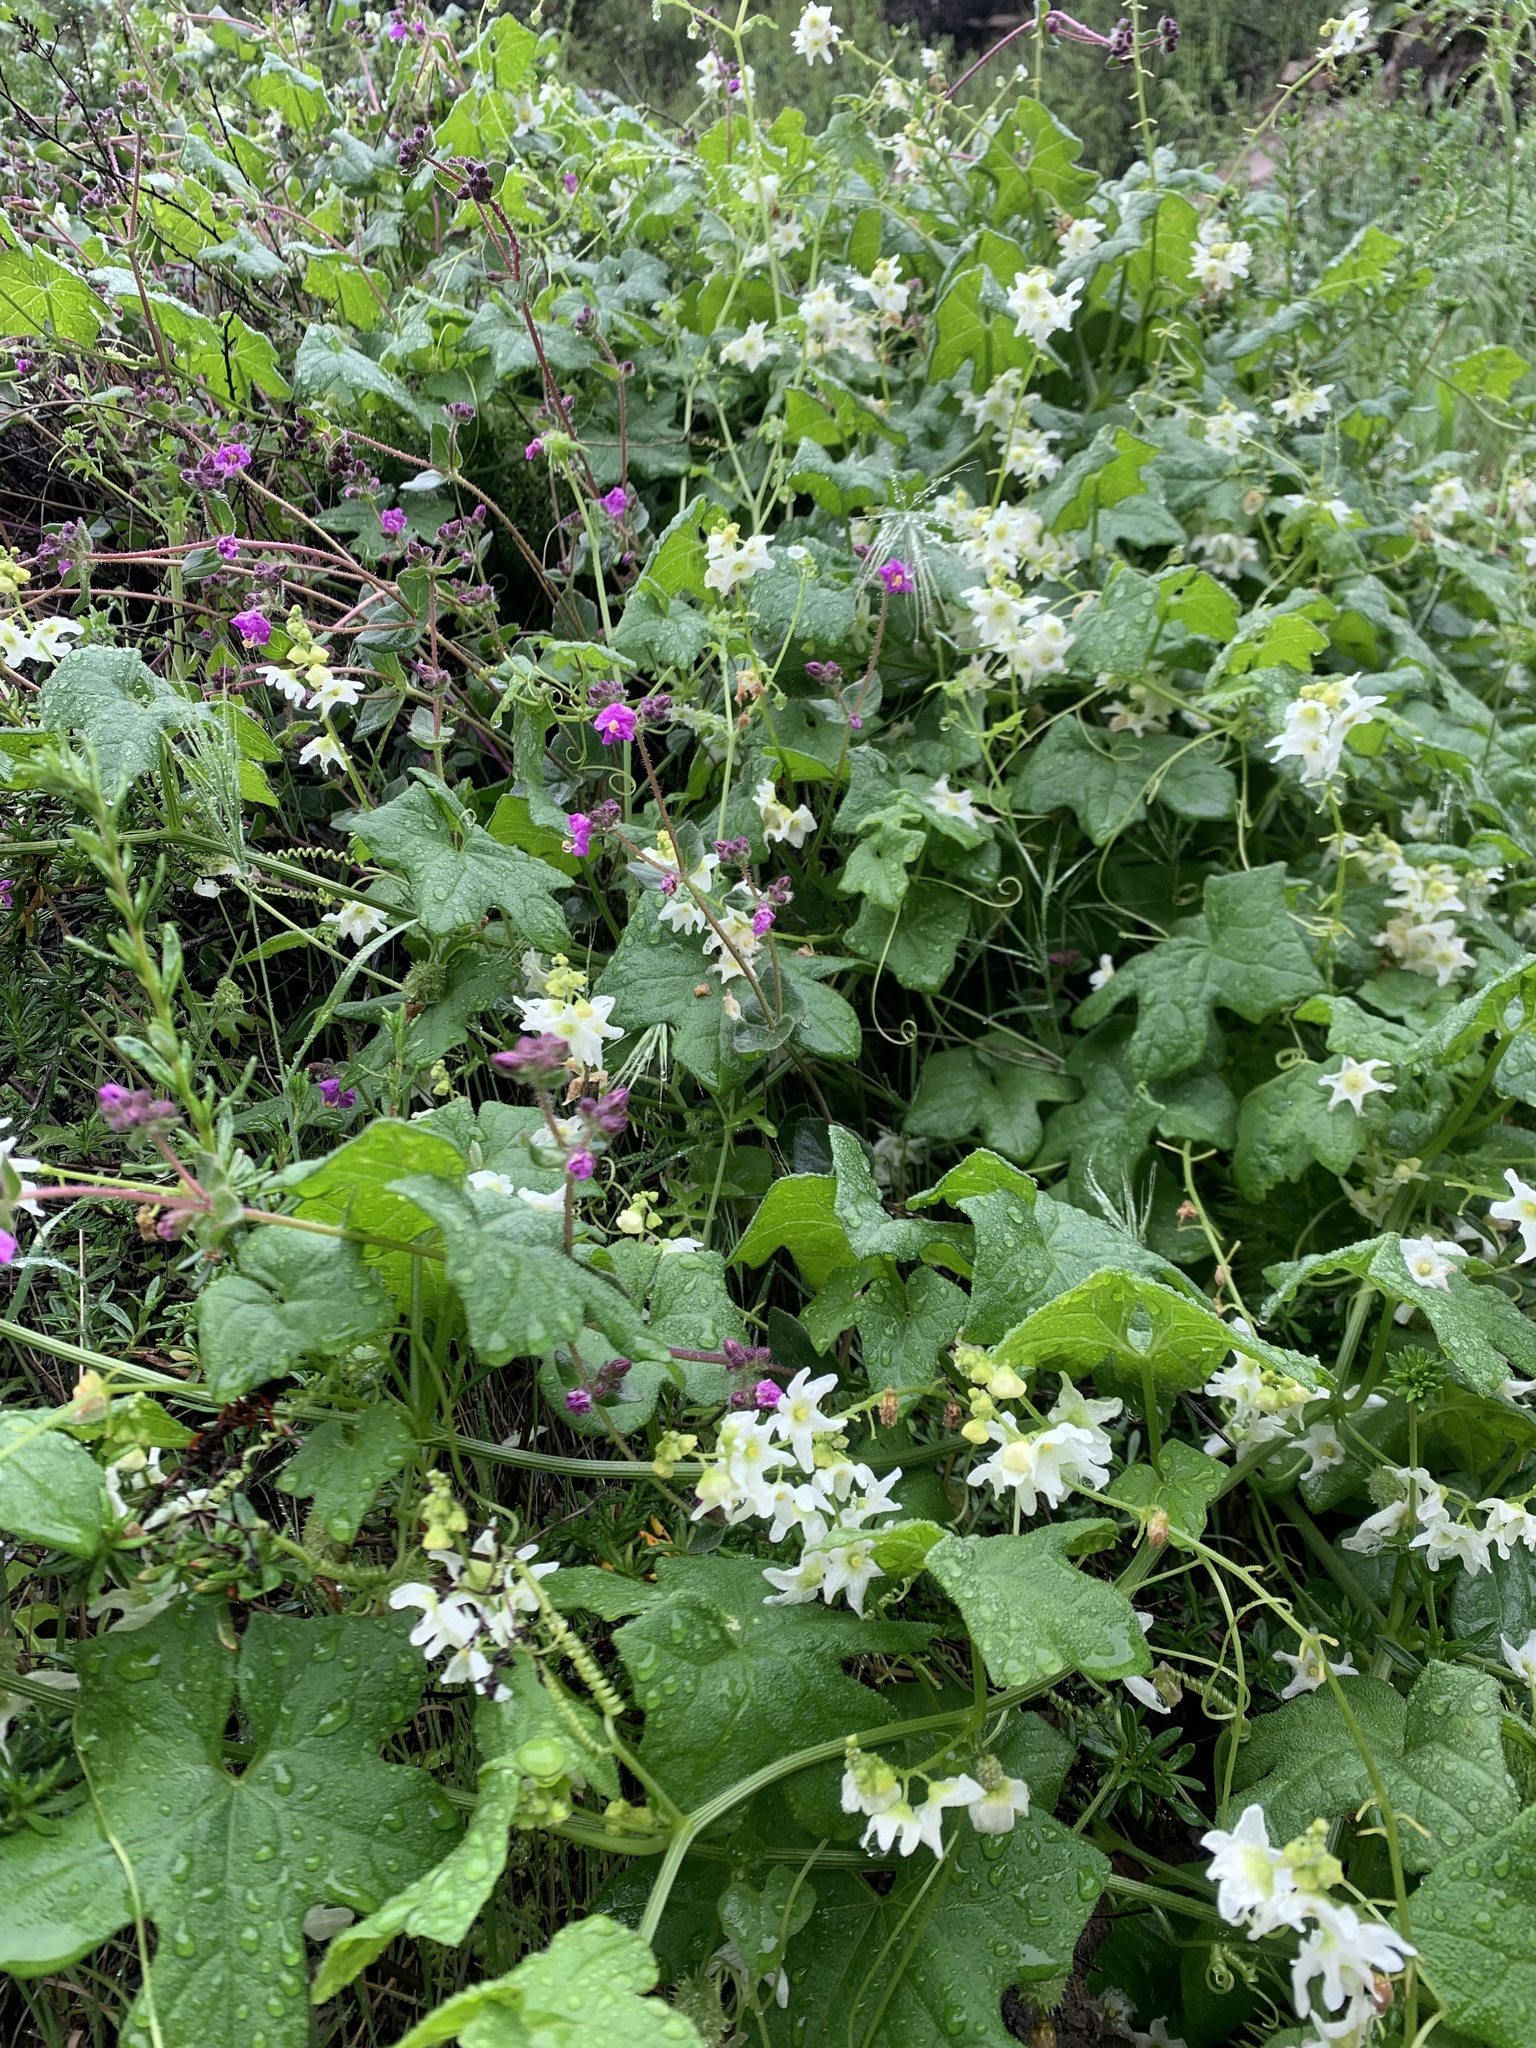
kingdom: Plantae
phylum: Tracheophyta
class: Magnoliopsida
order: Cucurbitales
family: Cucurbitaceae
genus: Marah
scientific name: Marah macrocarpa
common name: Cucamonga manroot
